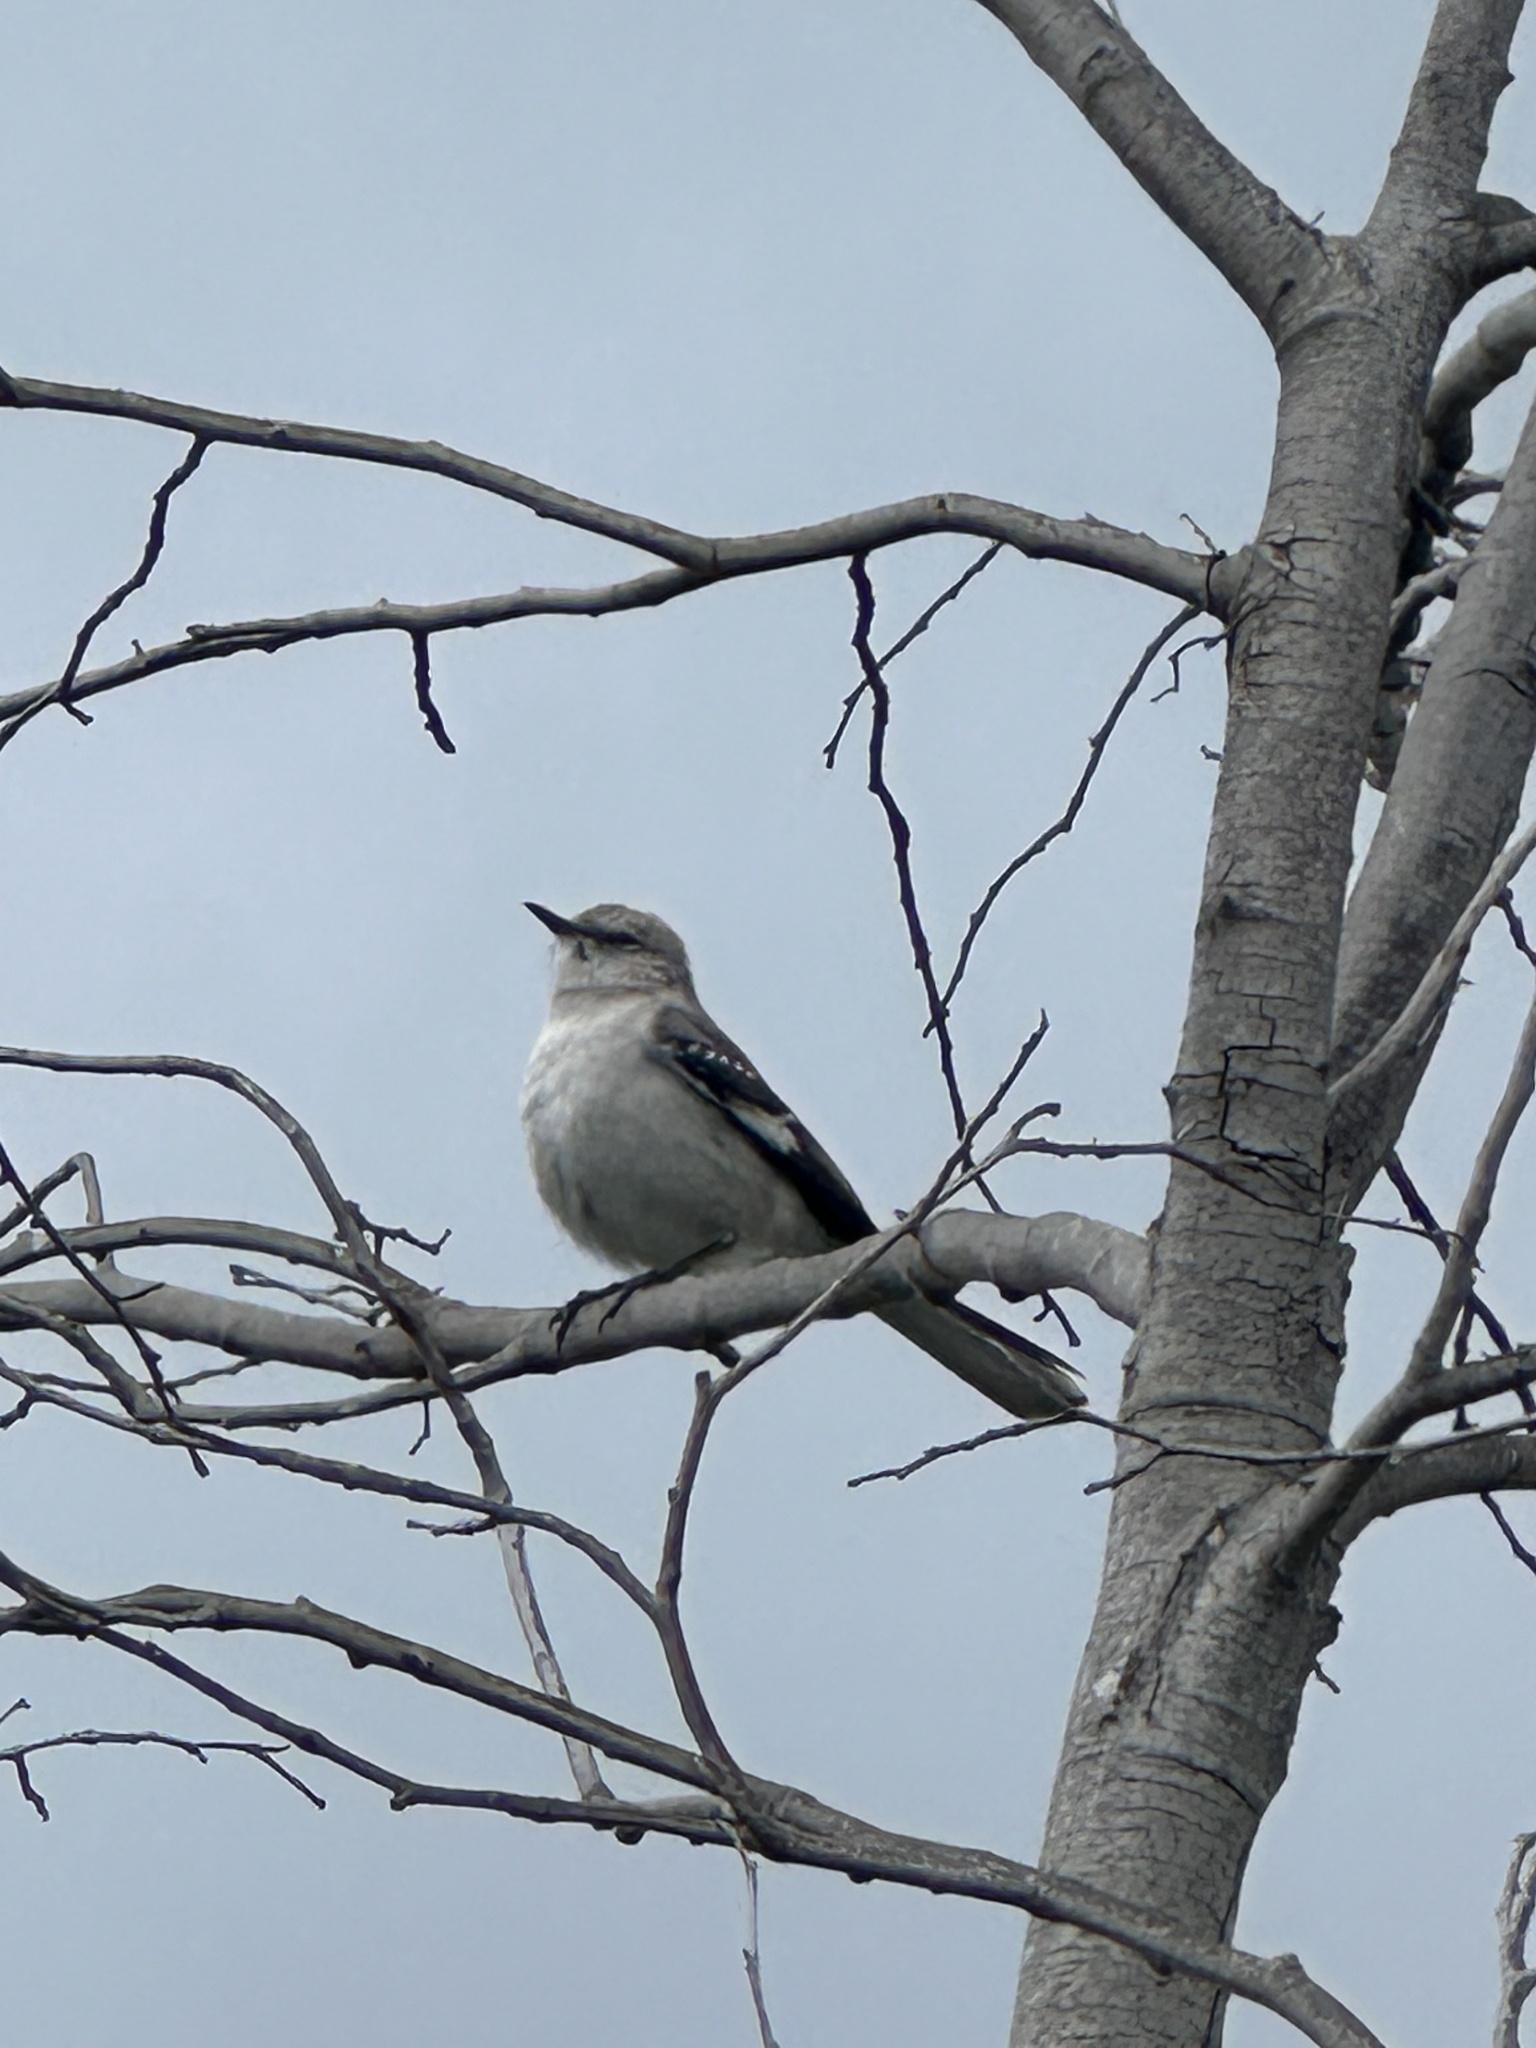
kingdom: Animalia
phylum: Chordata
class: Aves
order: Passeriformes
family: Mimidae
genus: Mimus
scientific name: Mimus polyglottos
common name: Northern mockingbird
